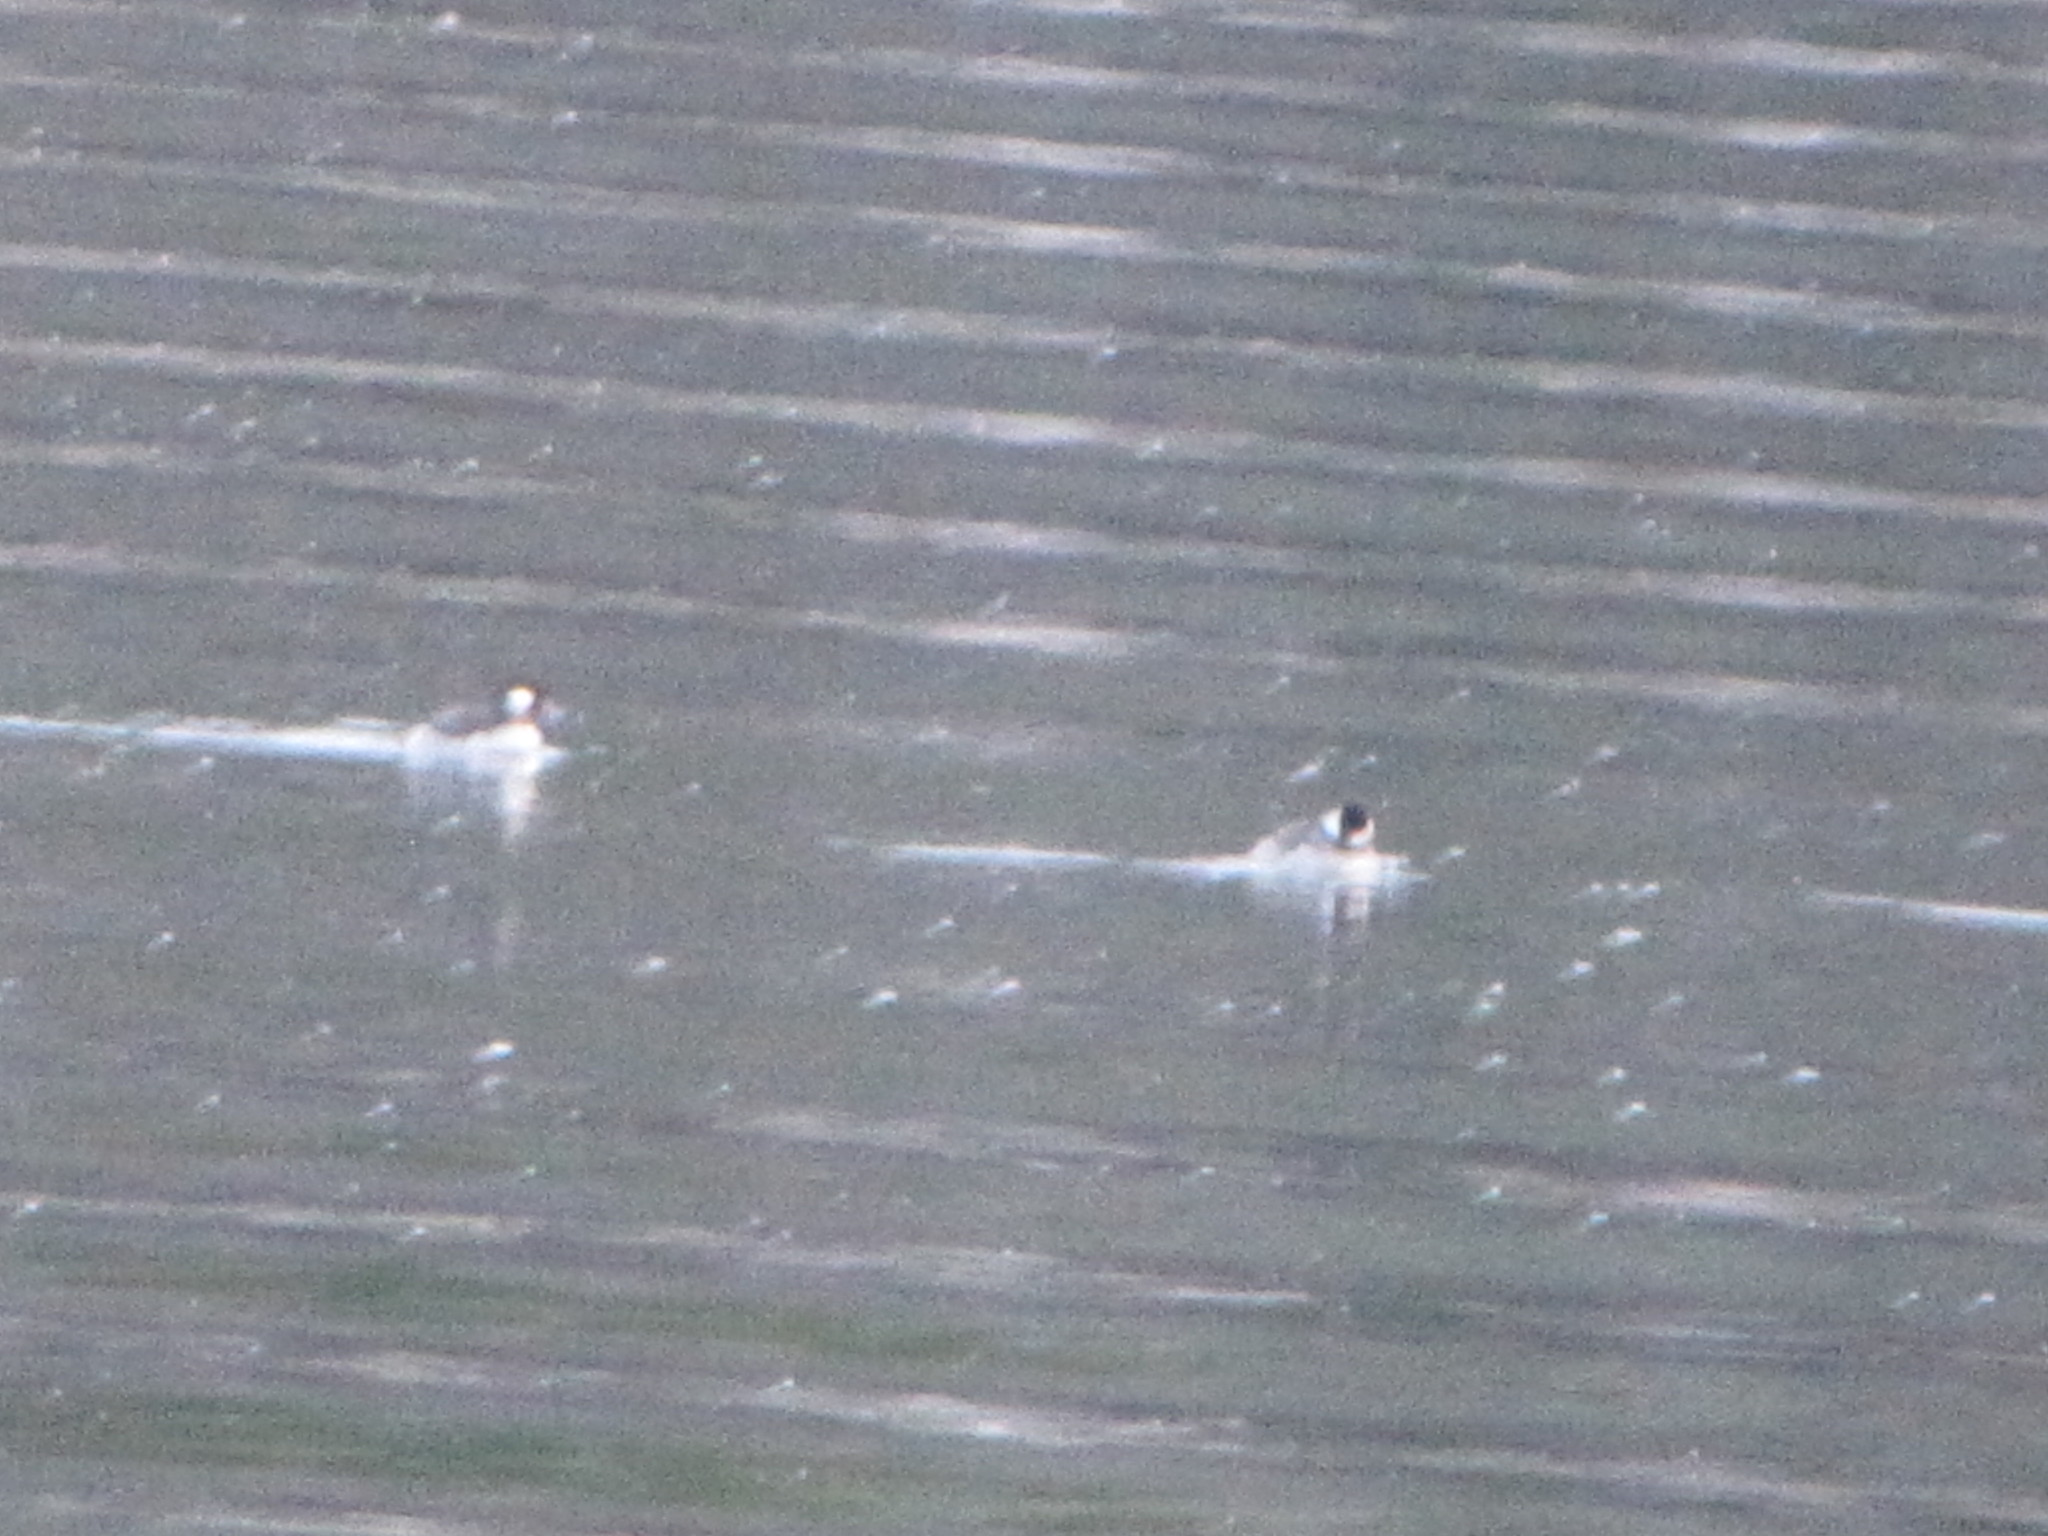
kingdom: Animalia
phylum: Chordata
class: Aves
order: Anseriformes
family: Anatidae
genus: Bucephala
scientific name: Bucephala albeola
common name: Bufflehead
